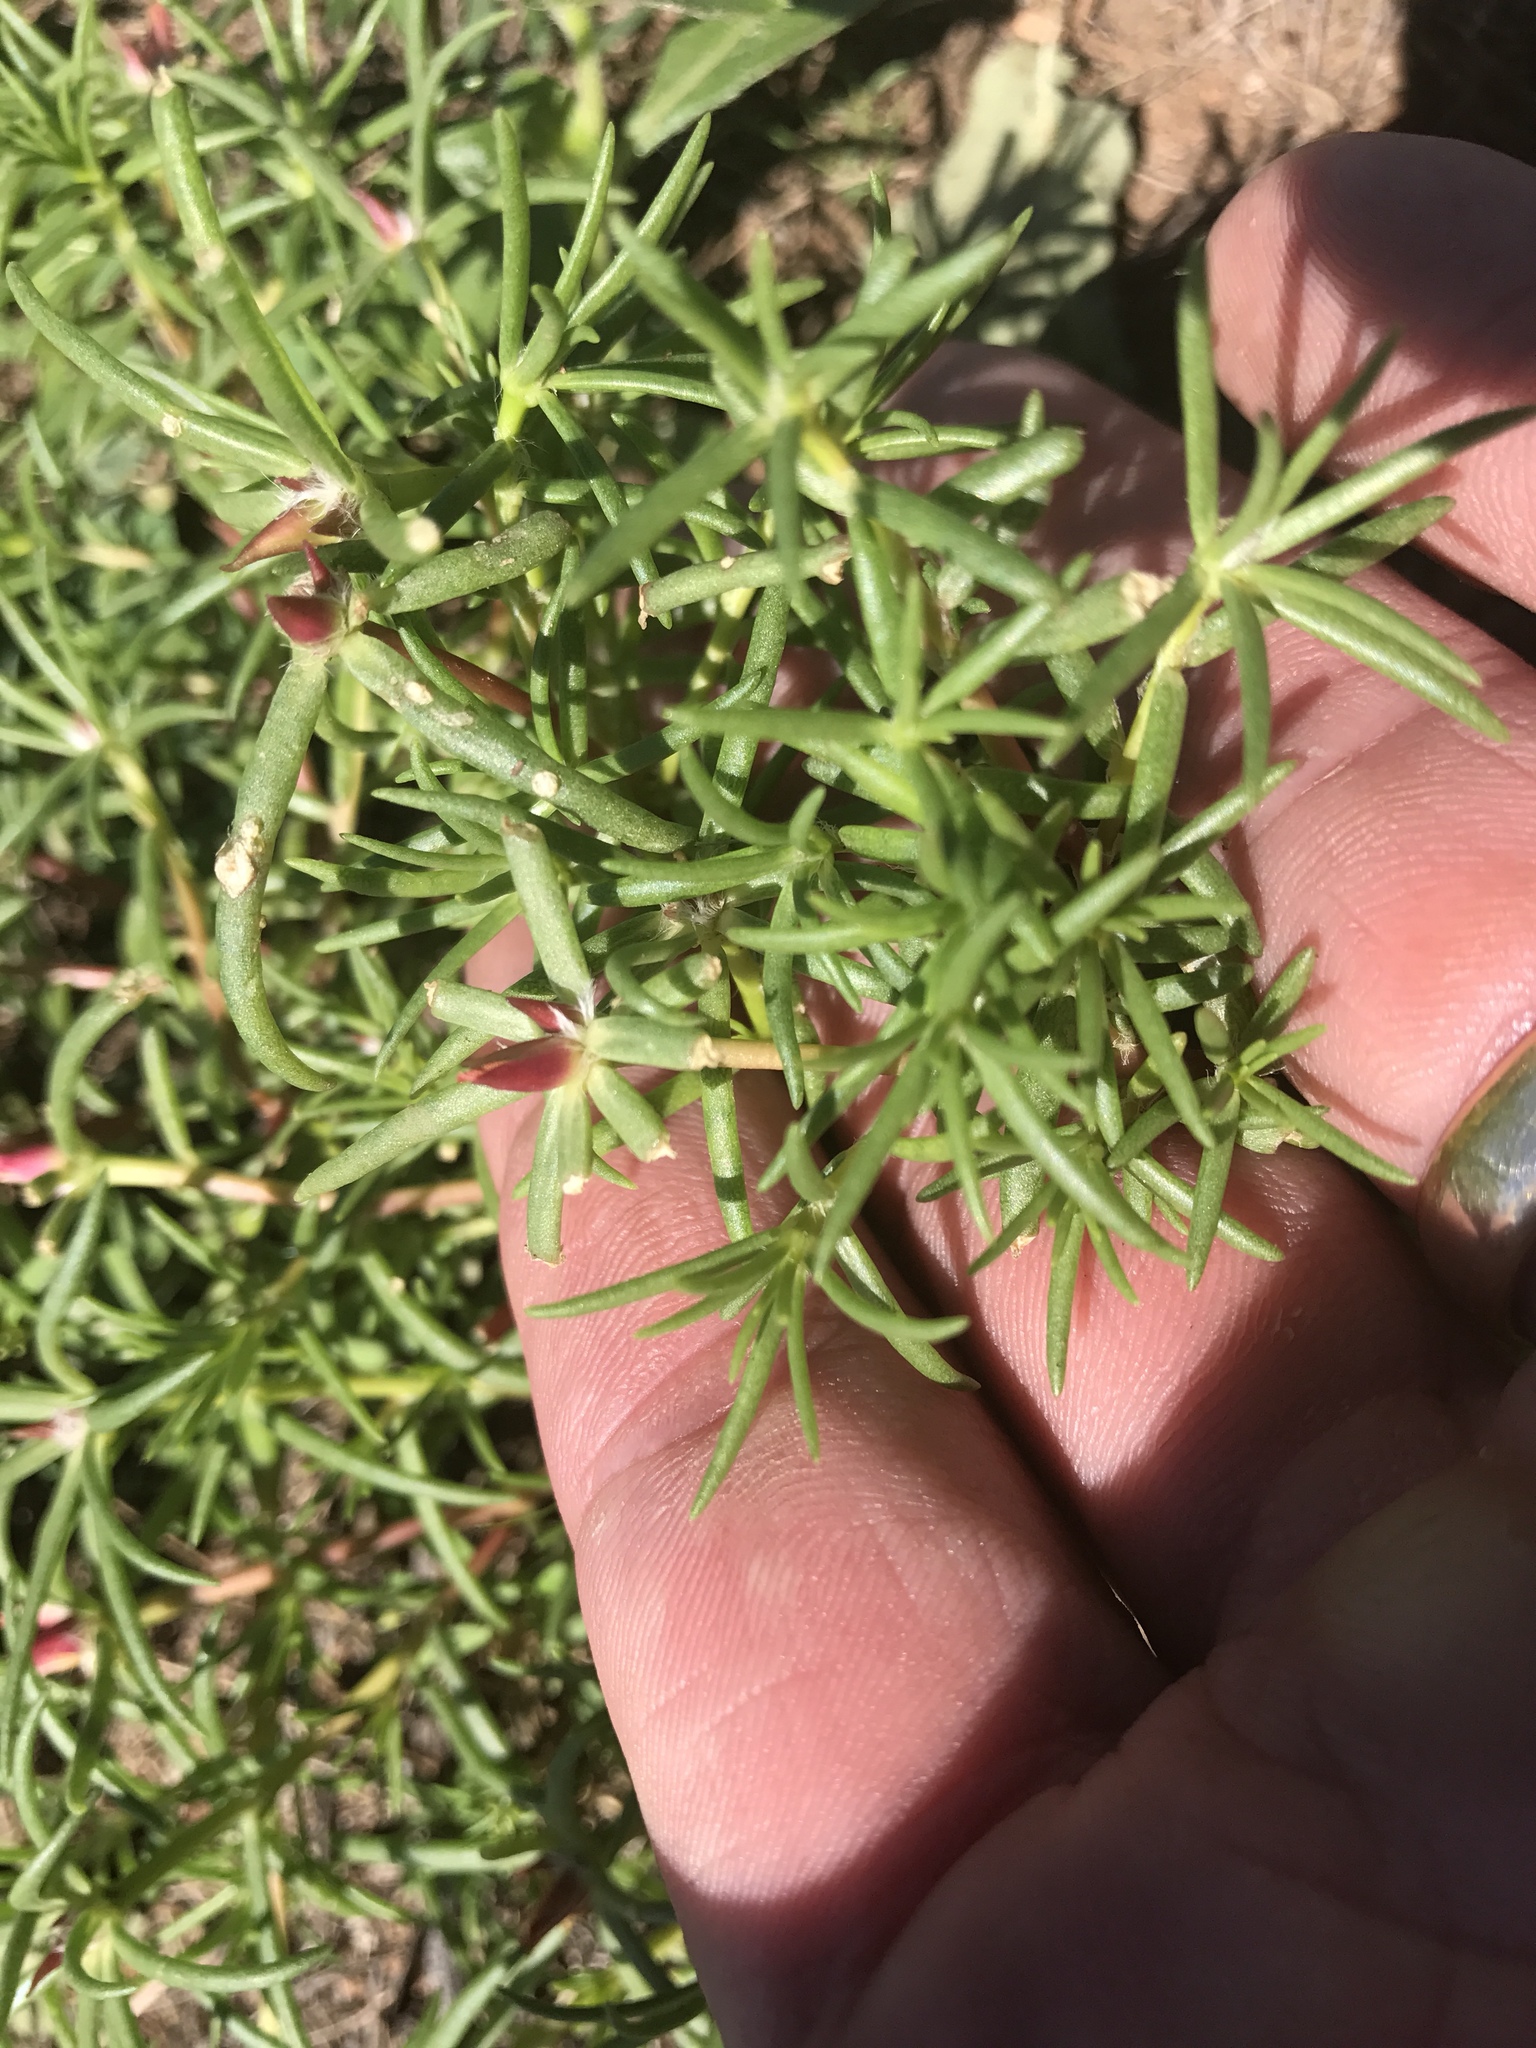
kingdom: Plantae
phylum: Tracheophyta
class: Magnoliopsida
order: Caryophyllales
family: Portulacaceae
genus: Portulaca
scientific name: Portulaca pilosa
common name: Kiss me quick
